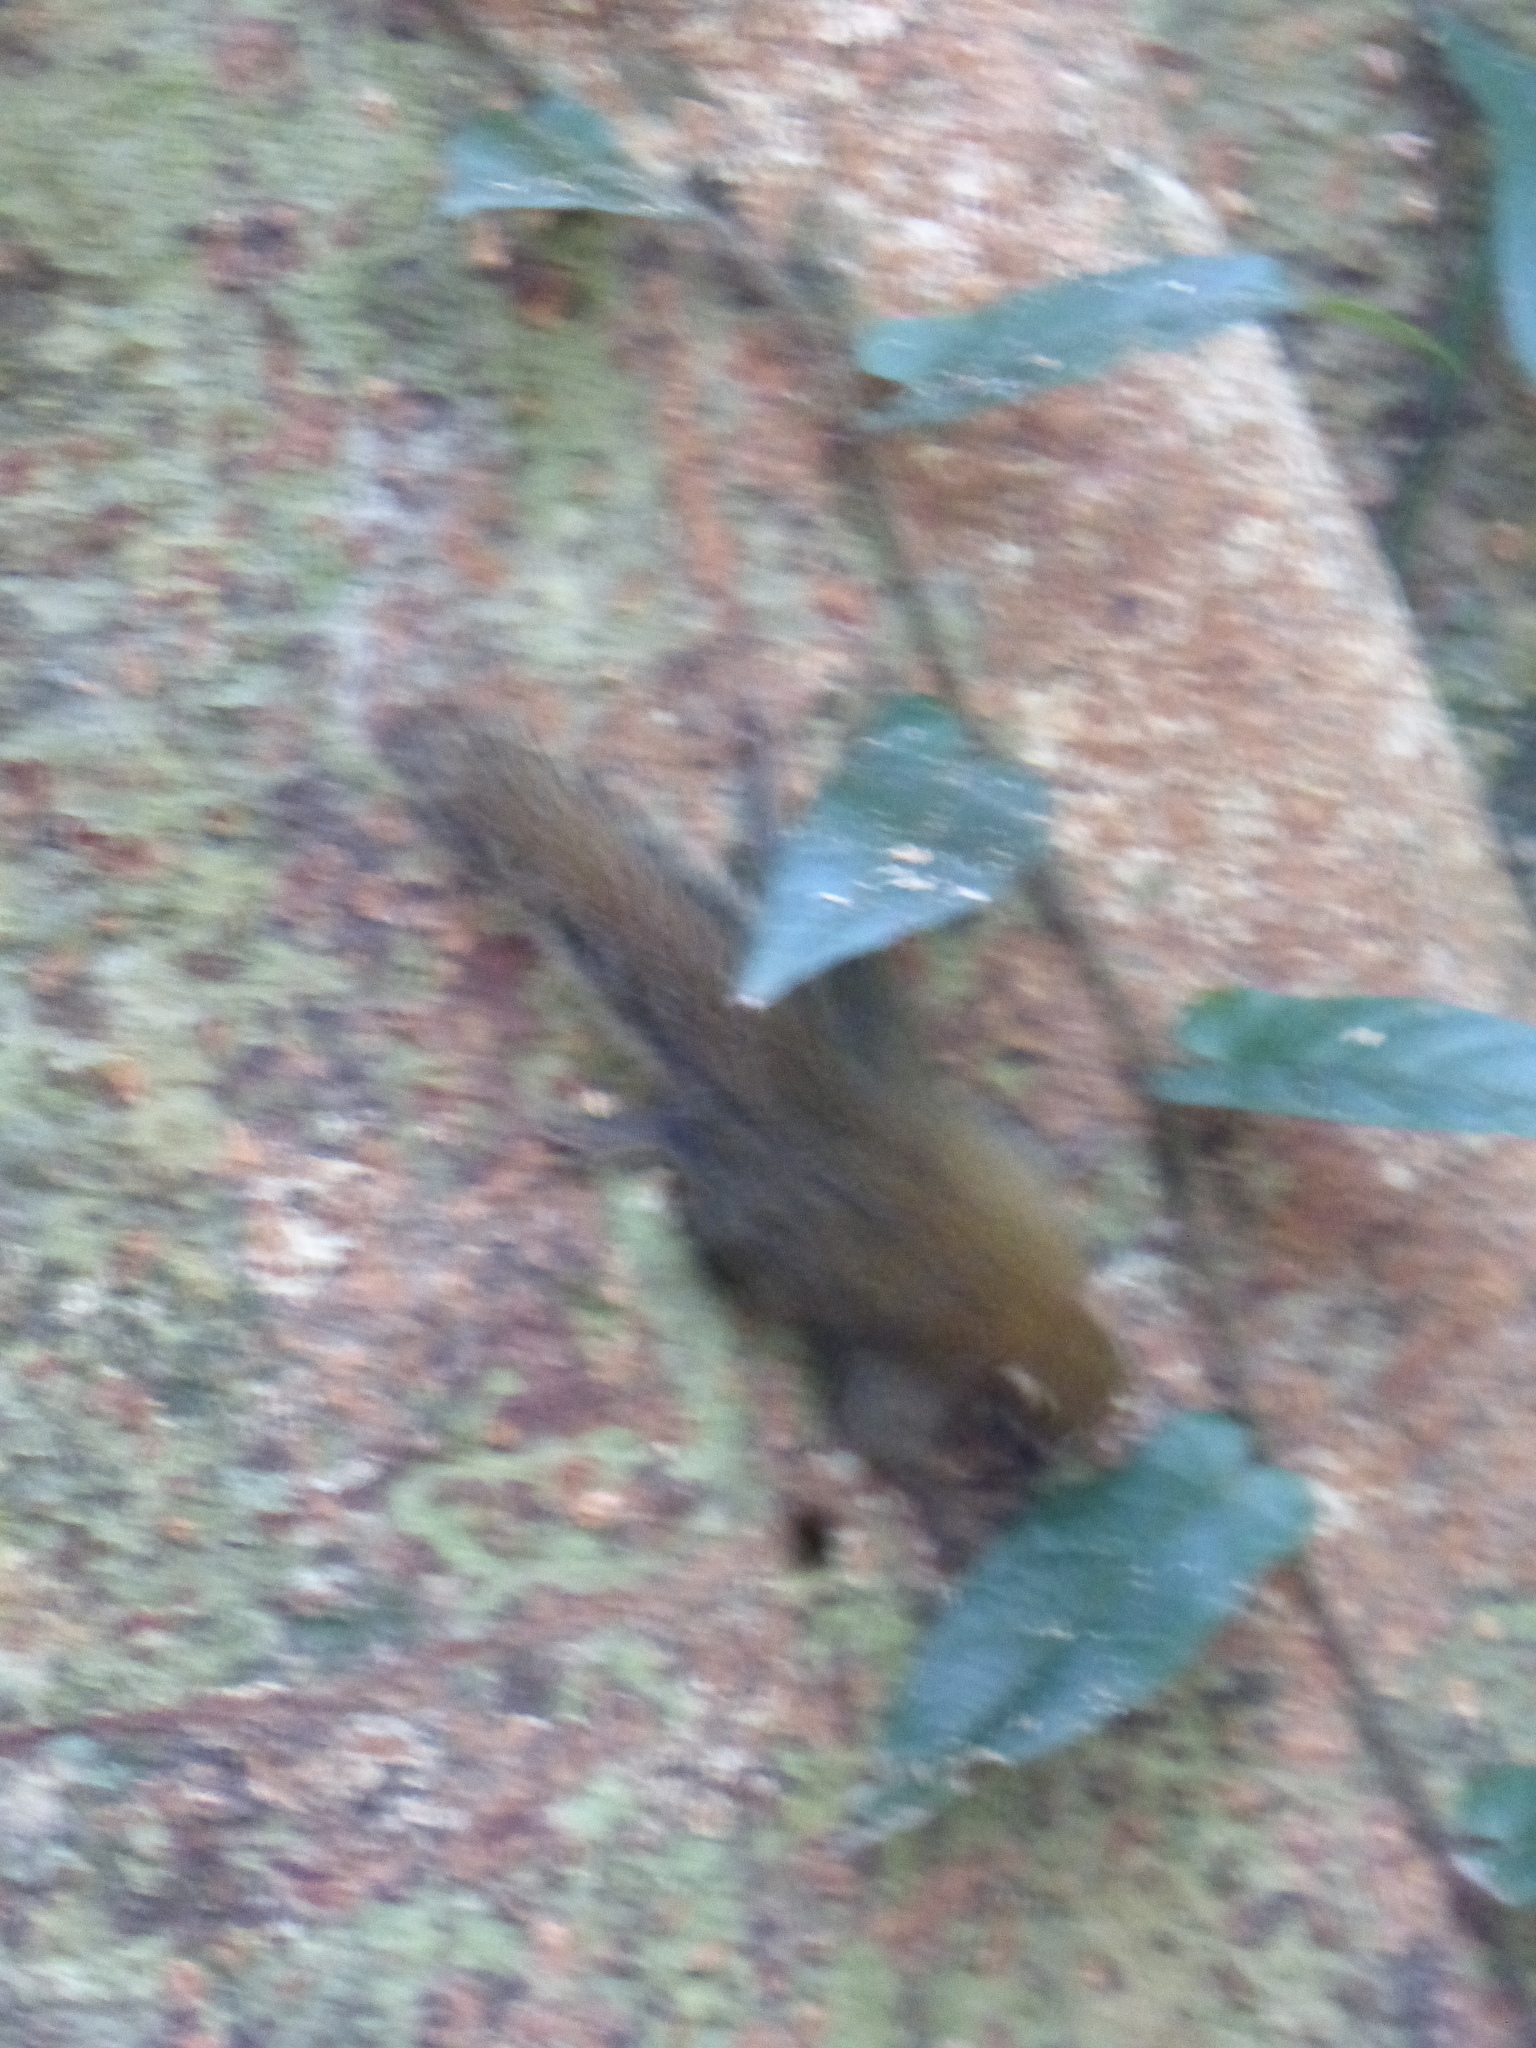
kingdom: Animalia
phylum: Chordata
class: Mammalia
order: Rodentia
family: Sciuridae
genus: Exilisciurus
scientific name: Exilisciurus exilis
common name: Least pygmy squirrel
